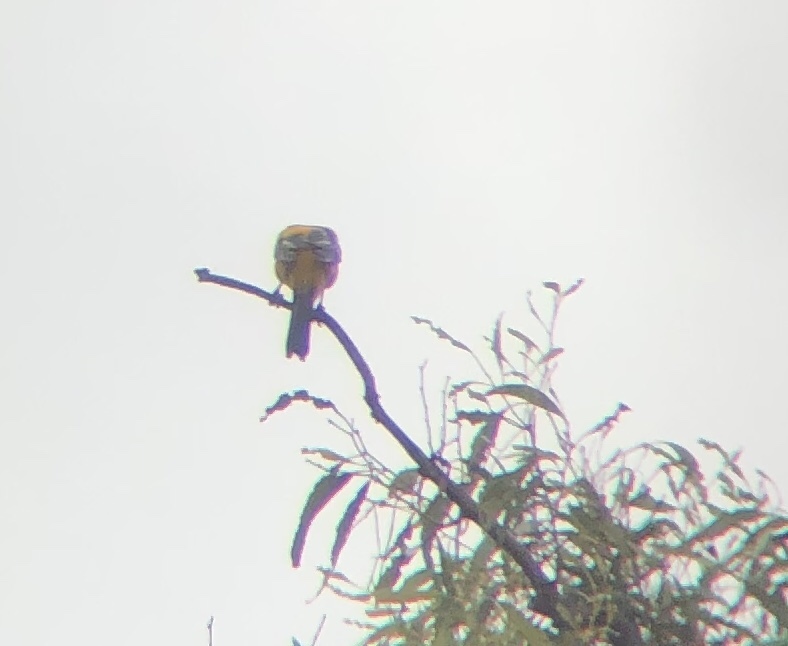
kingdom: Animalia
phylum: Chordata
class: Aves
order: Passeriformes
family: Icteridae
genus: Icterus
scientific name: Icterus cucullatus
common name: Hooded oriole
